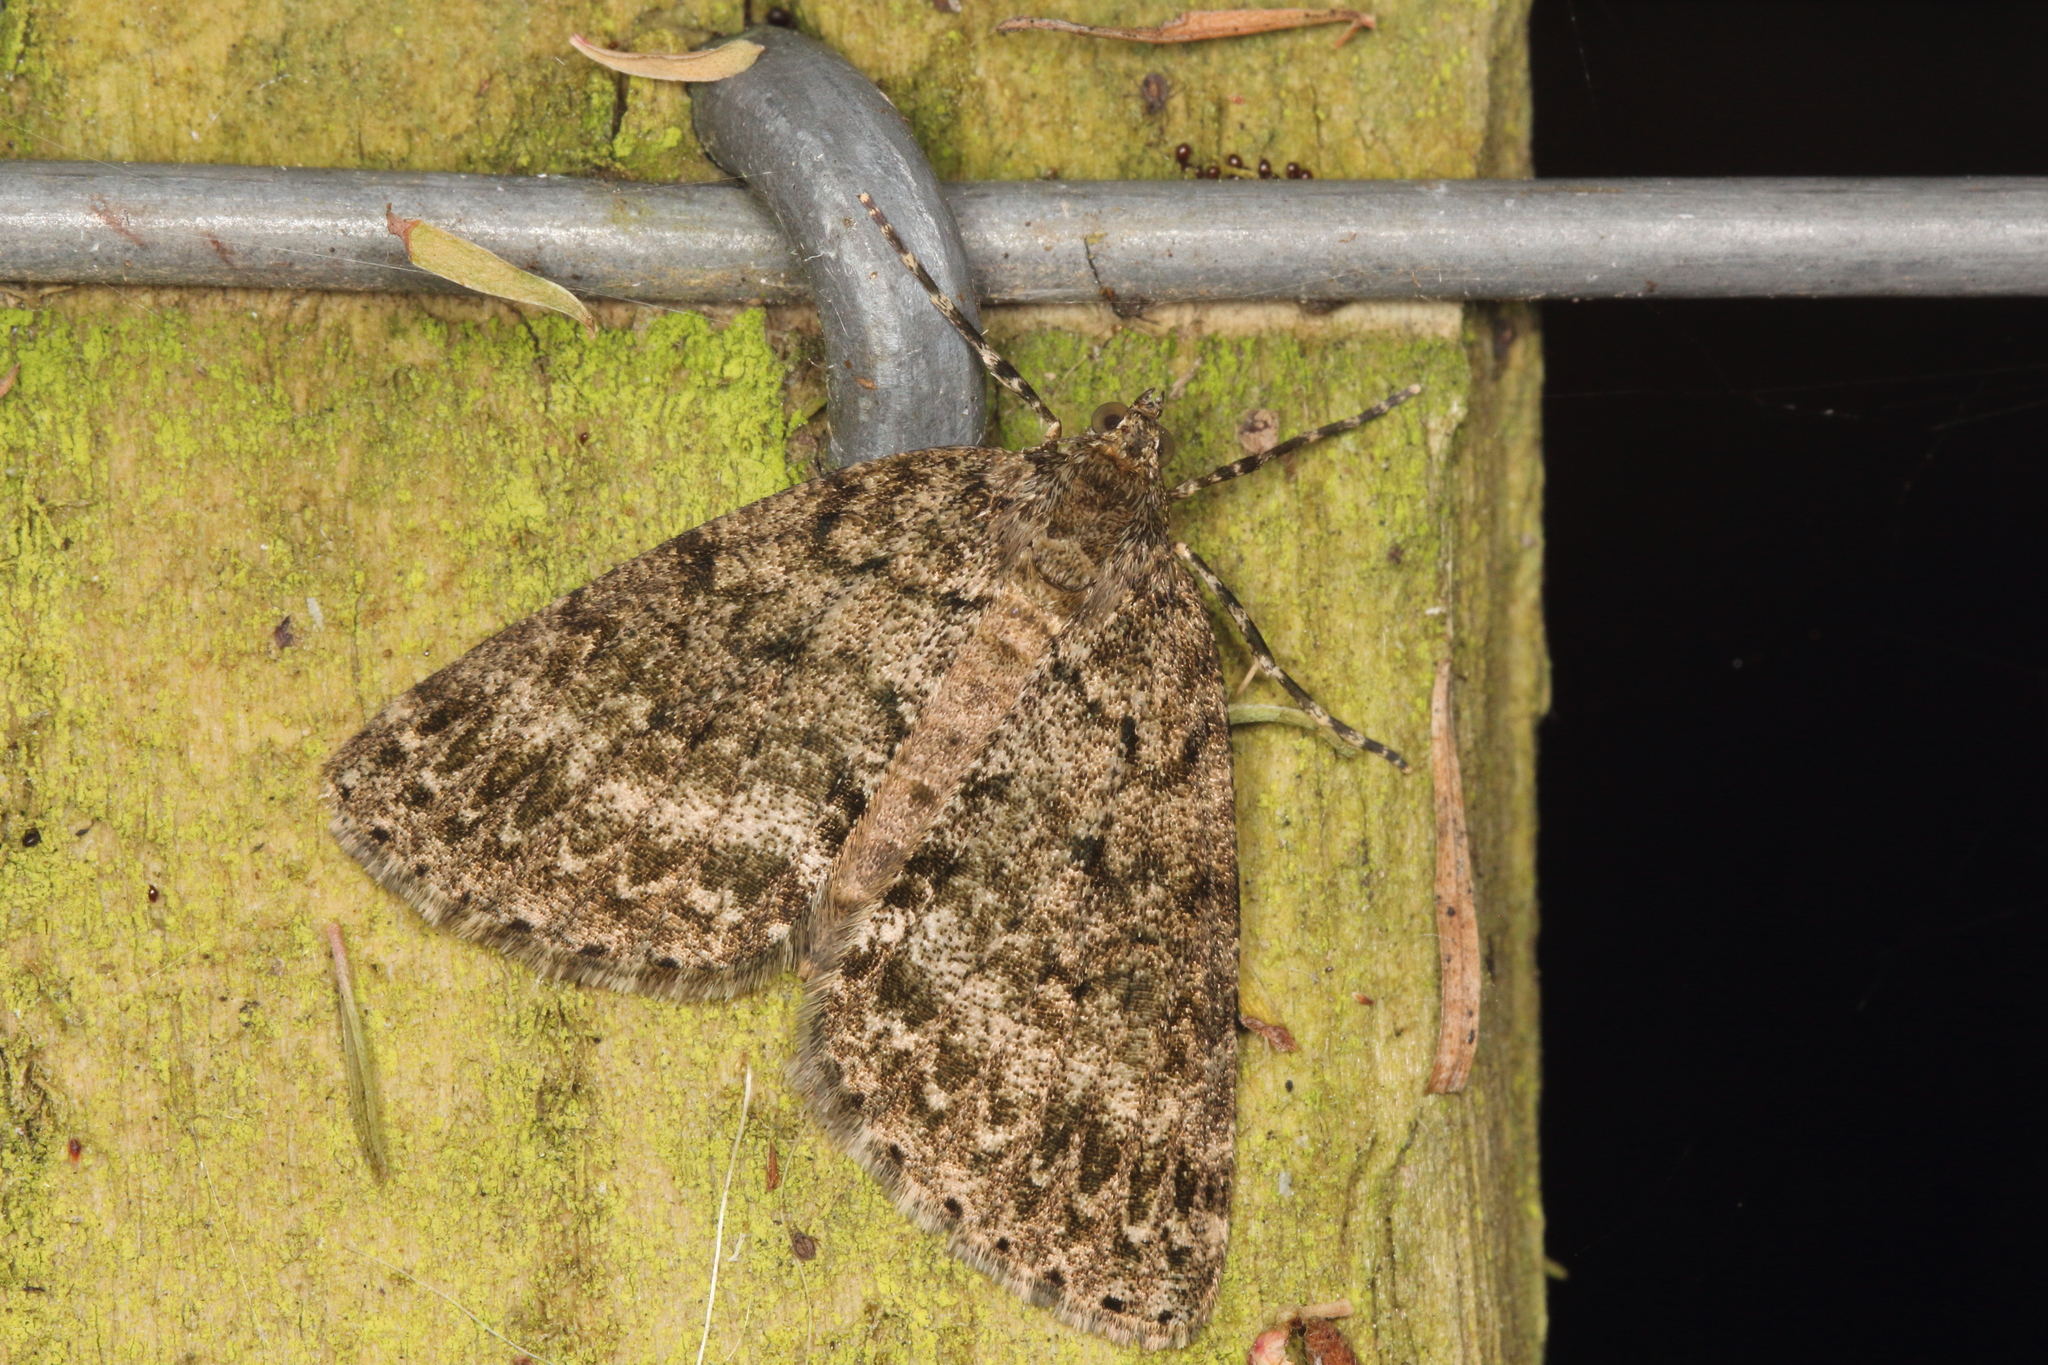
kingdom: Animalia
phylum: Arthropoda
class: Insecta
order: Lepidoptera
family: Geometridae
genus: Pseudocoremia
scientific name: Pseudocoremia indistincta
